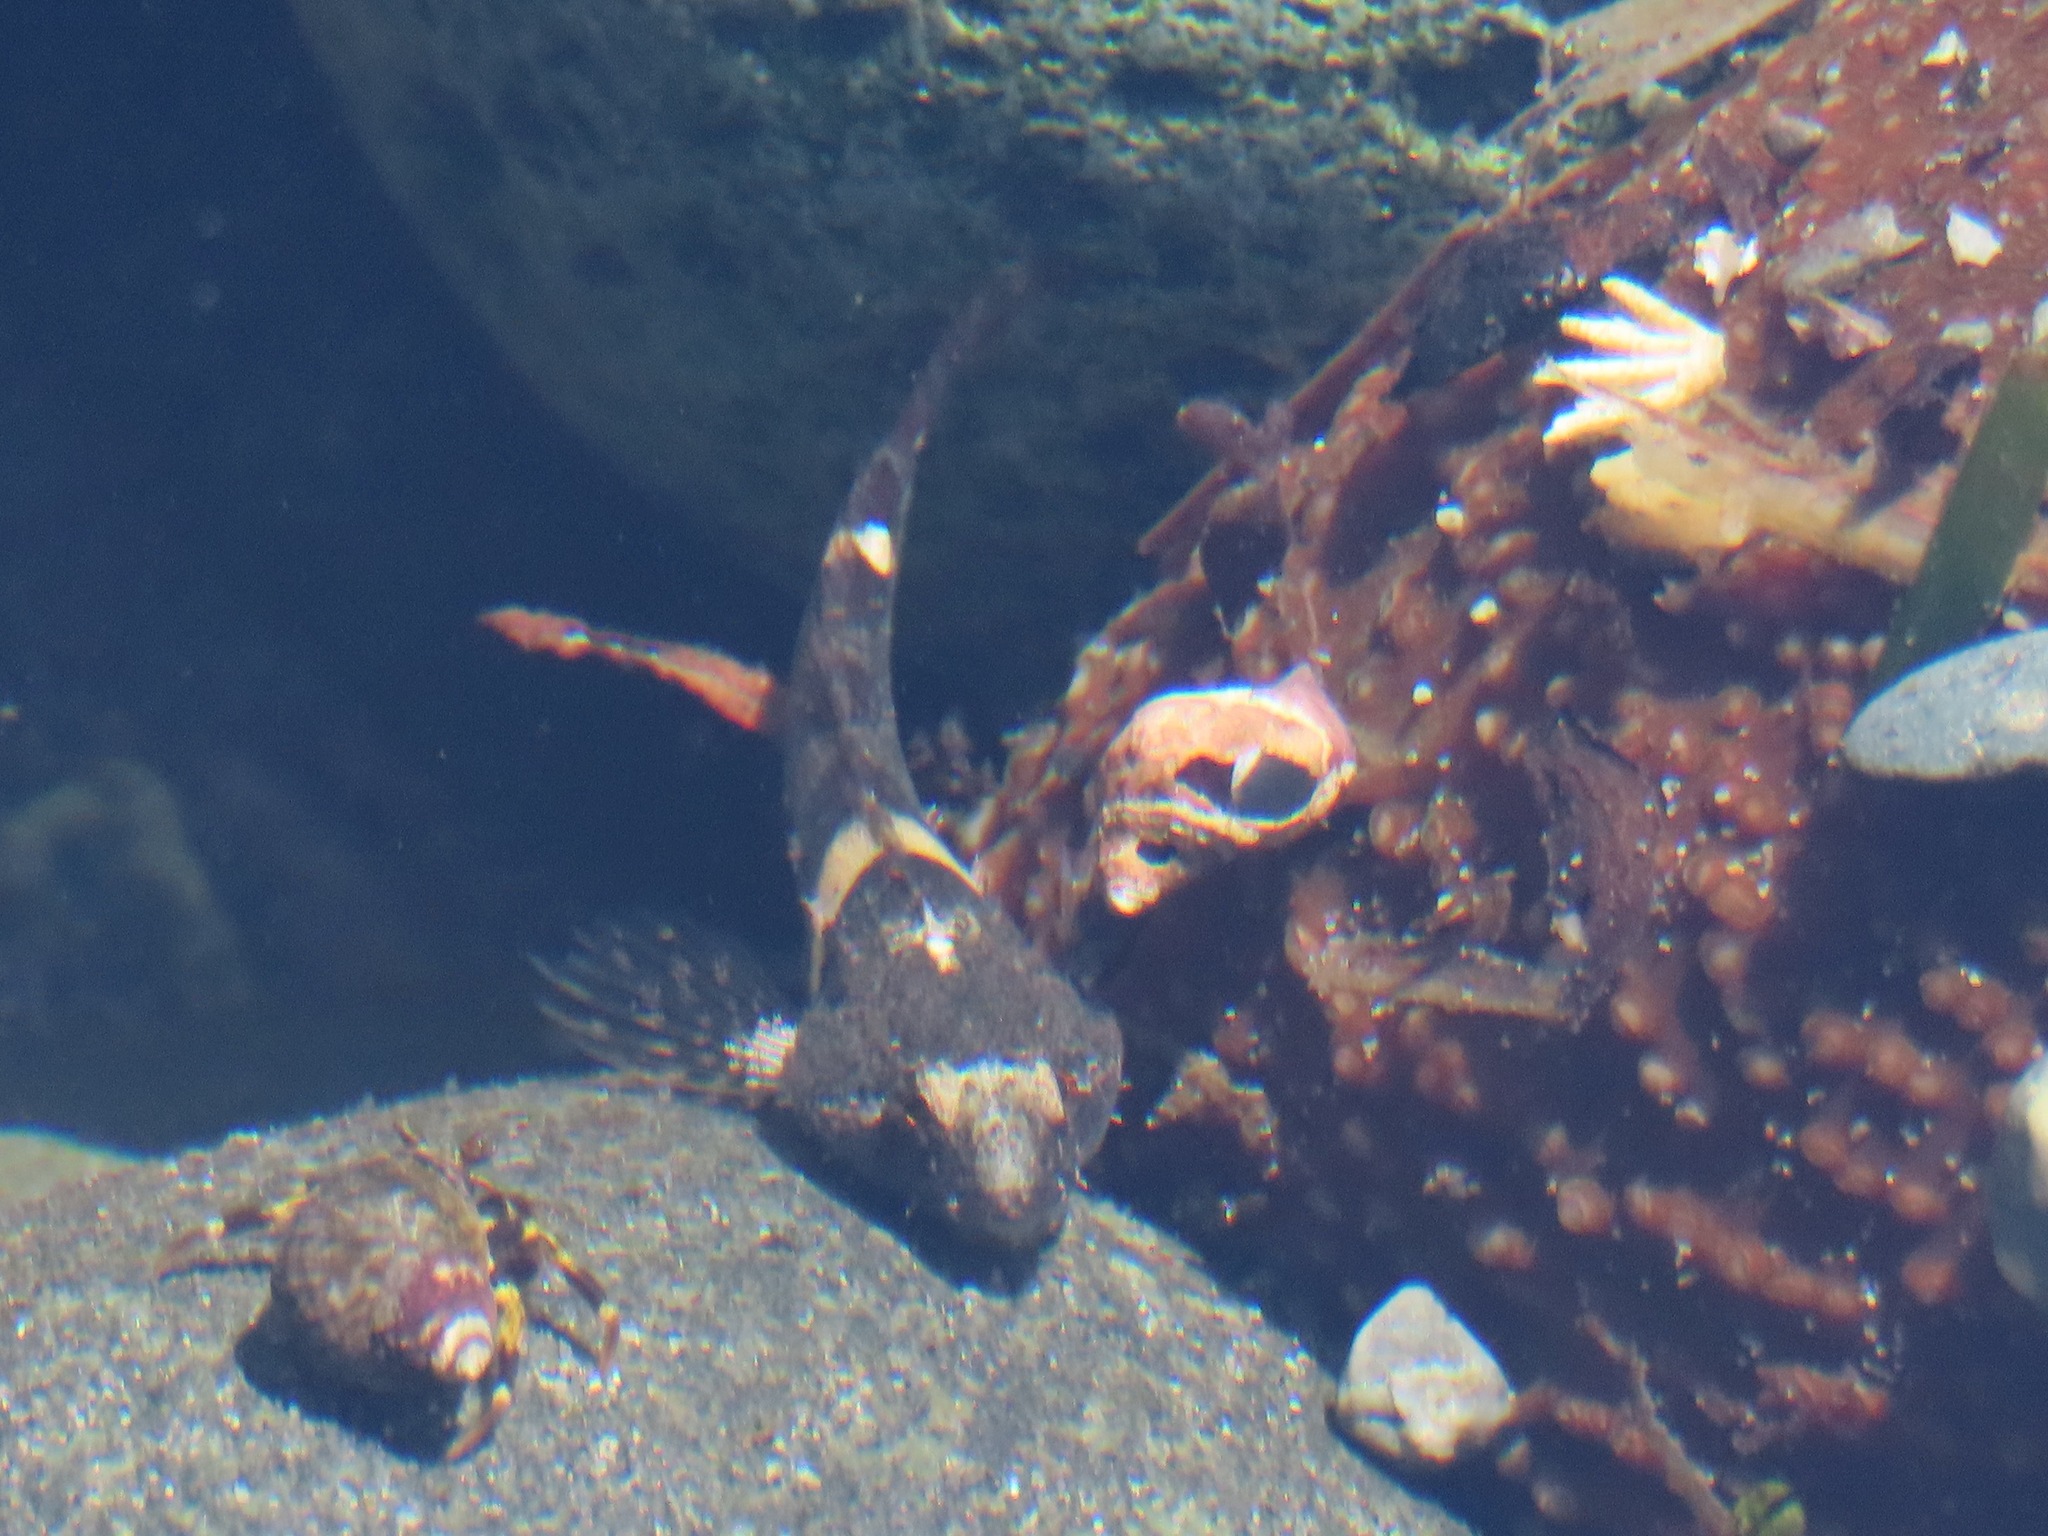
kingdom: Animalia
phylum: Chordata
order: Scorpaeniformes
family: Cottidae
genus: Oligocottus
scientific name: Oligocottus maculosus
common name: Tidepool sculpin
